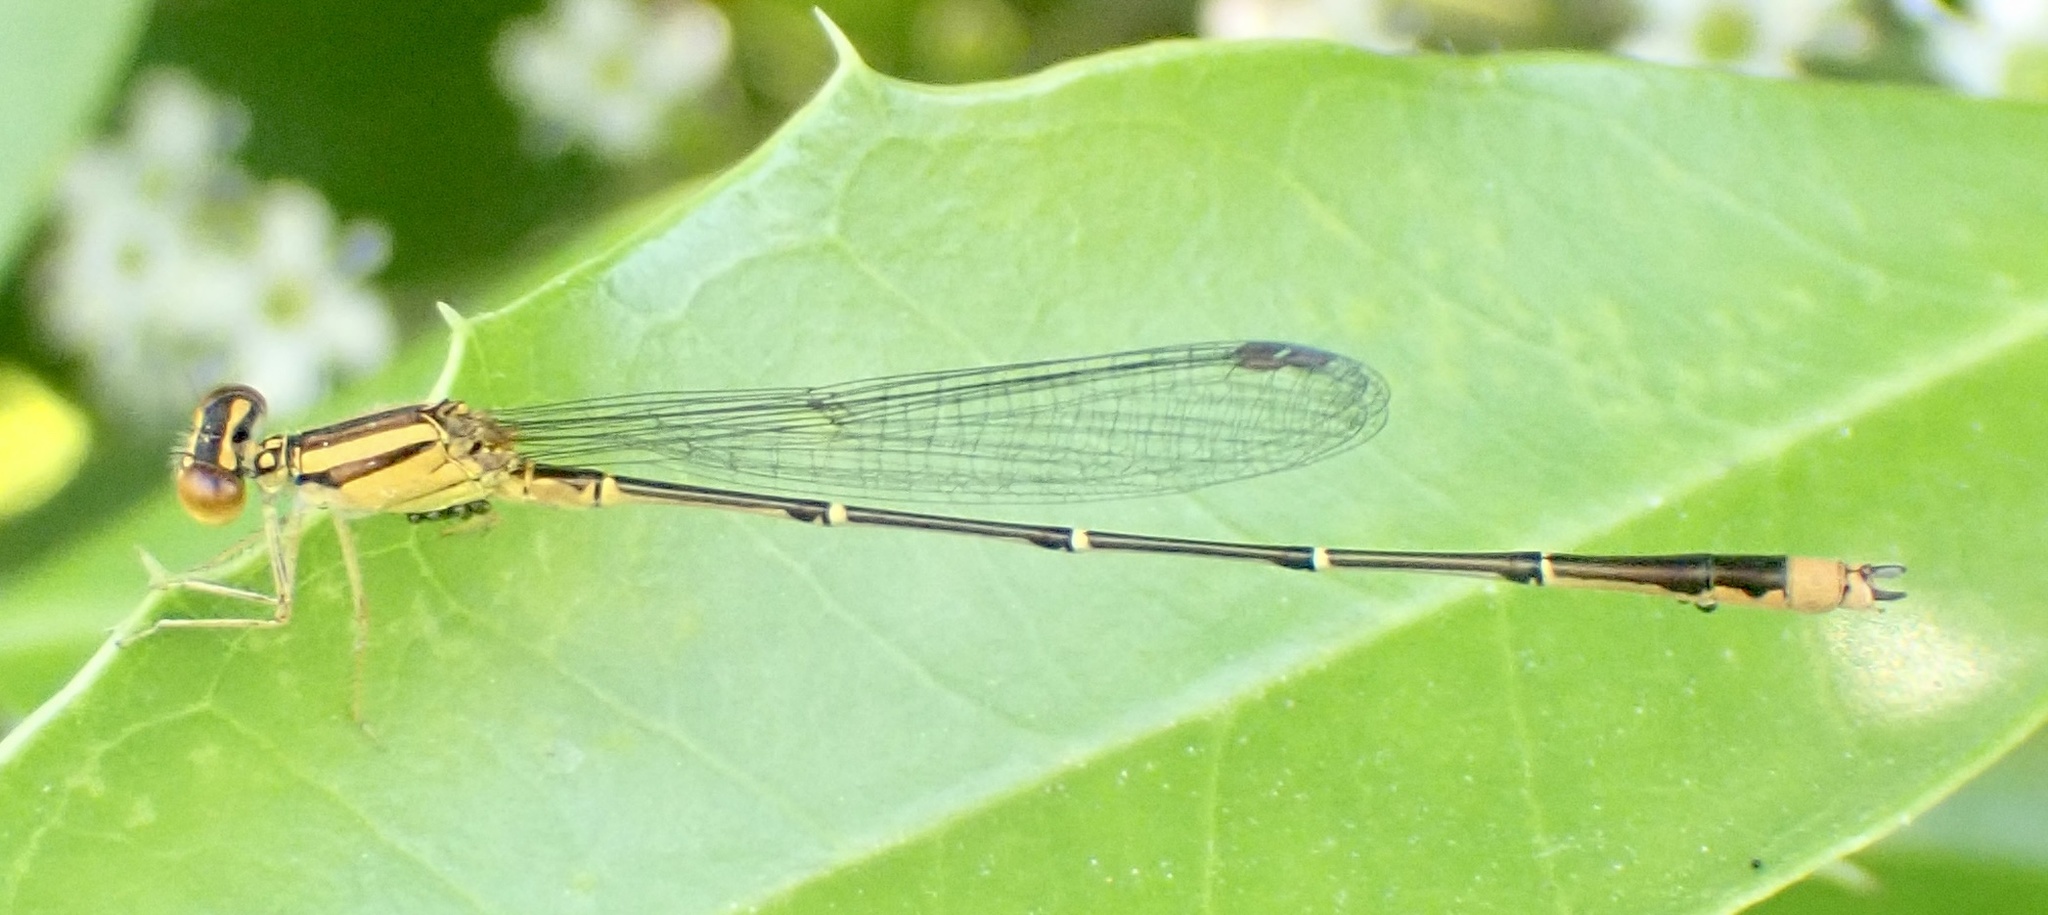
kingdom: Animalia
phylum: Arthropoda
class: Insecta
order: Odonata
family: Coenagrionidae
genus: Enallagma
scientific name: Enallagma signatum
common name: Orange bluet
